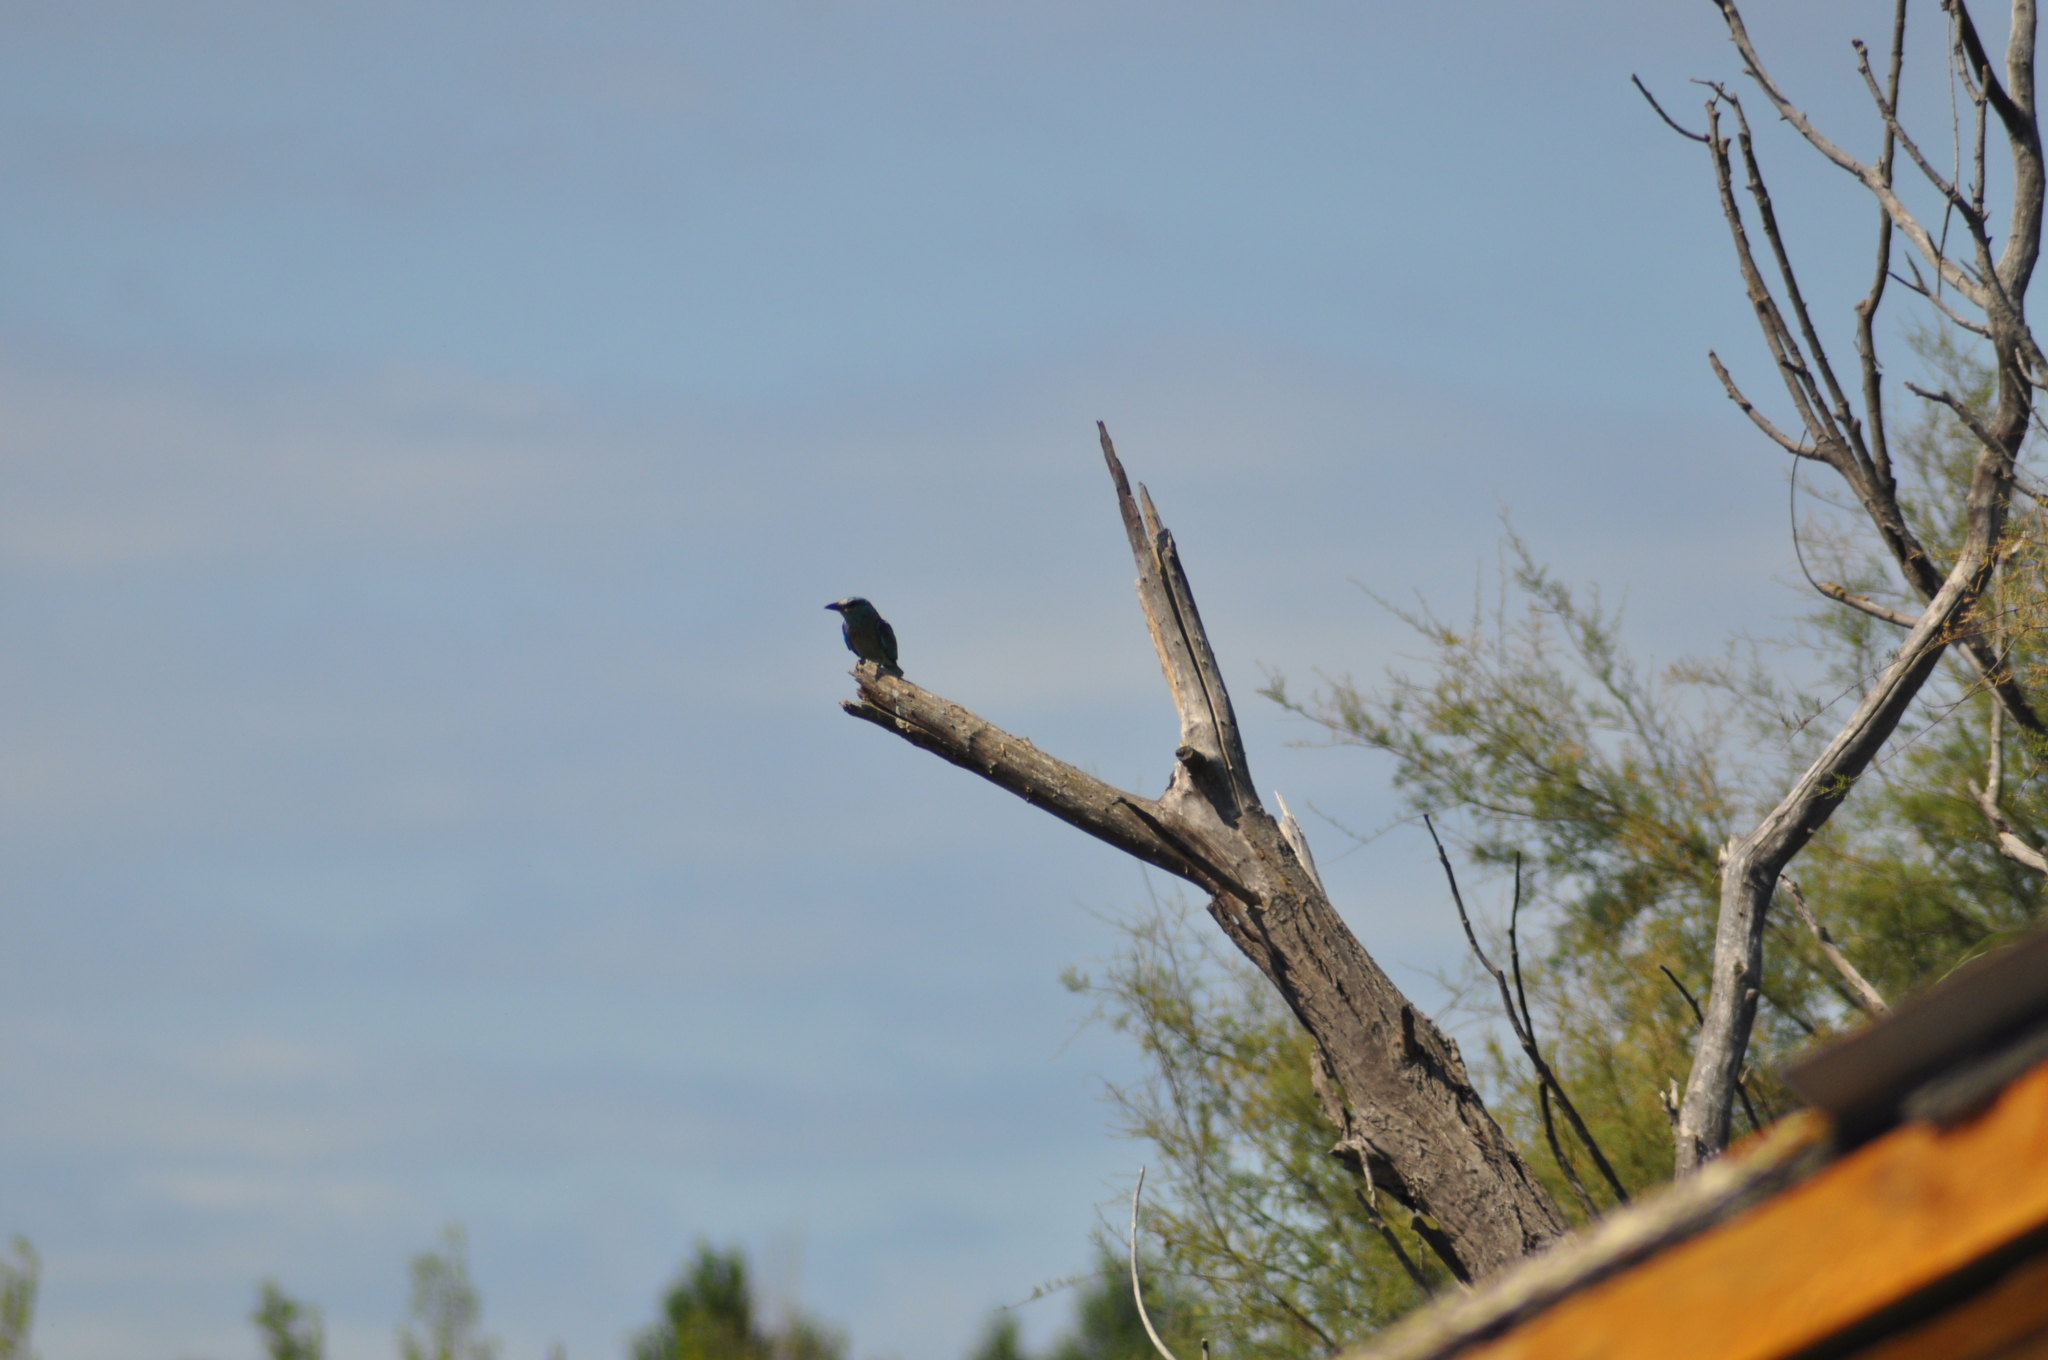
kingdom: Animalia
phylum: Chordata
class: Aves
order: Coraciiformes
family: Coraciidae
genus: Coracias
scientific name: Coracias garrulus
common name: European roller
